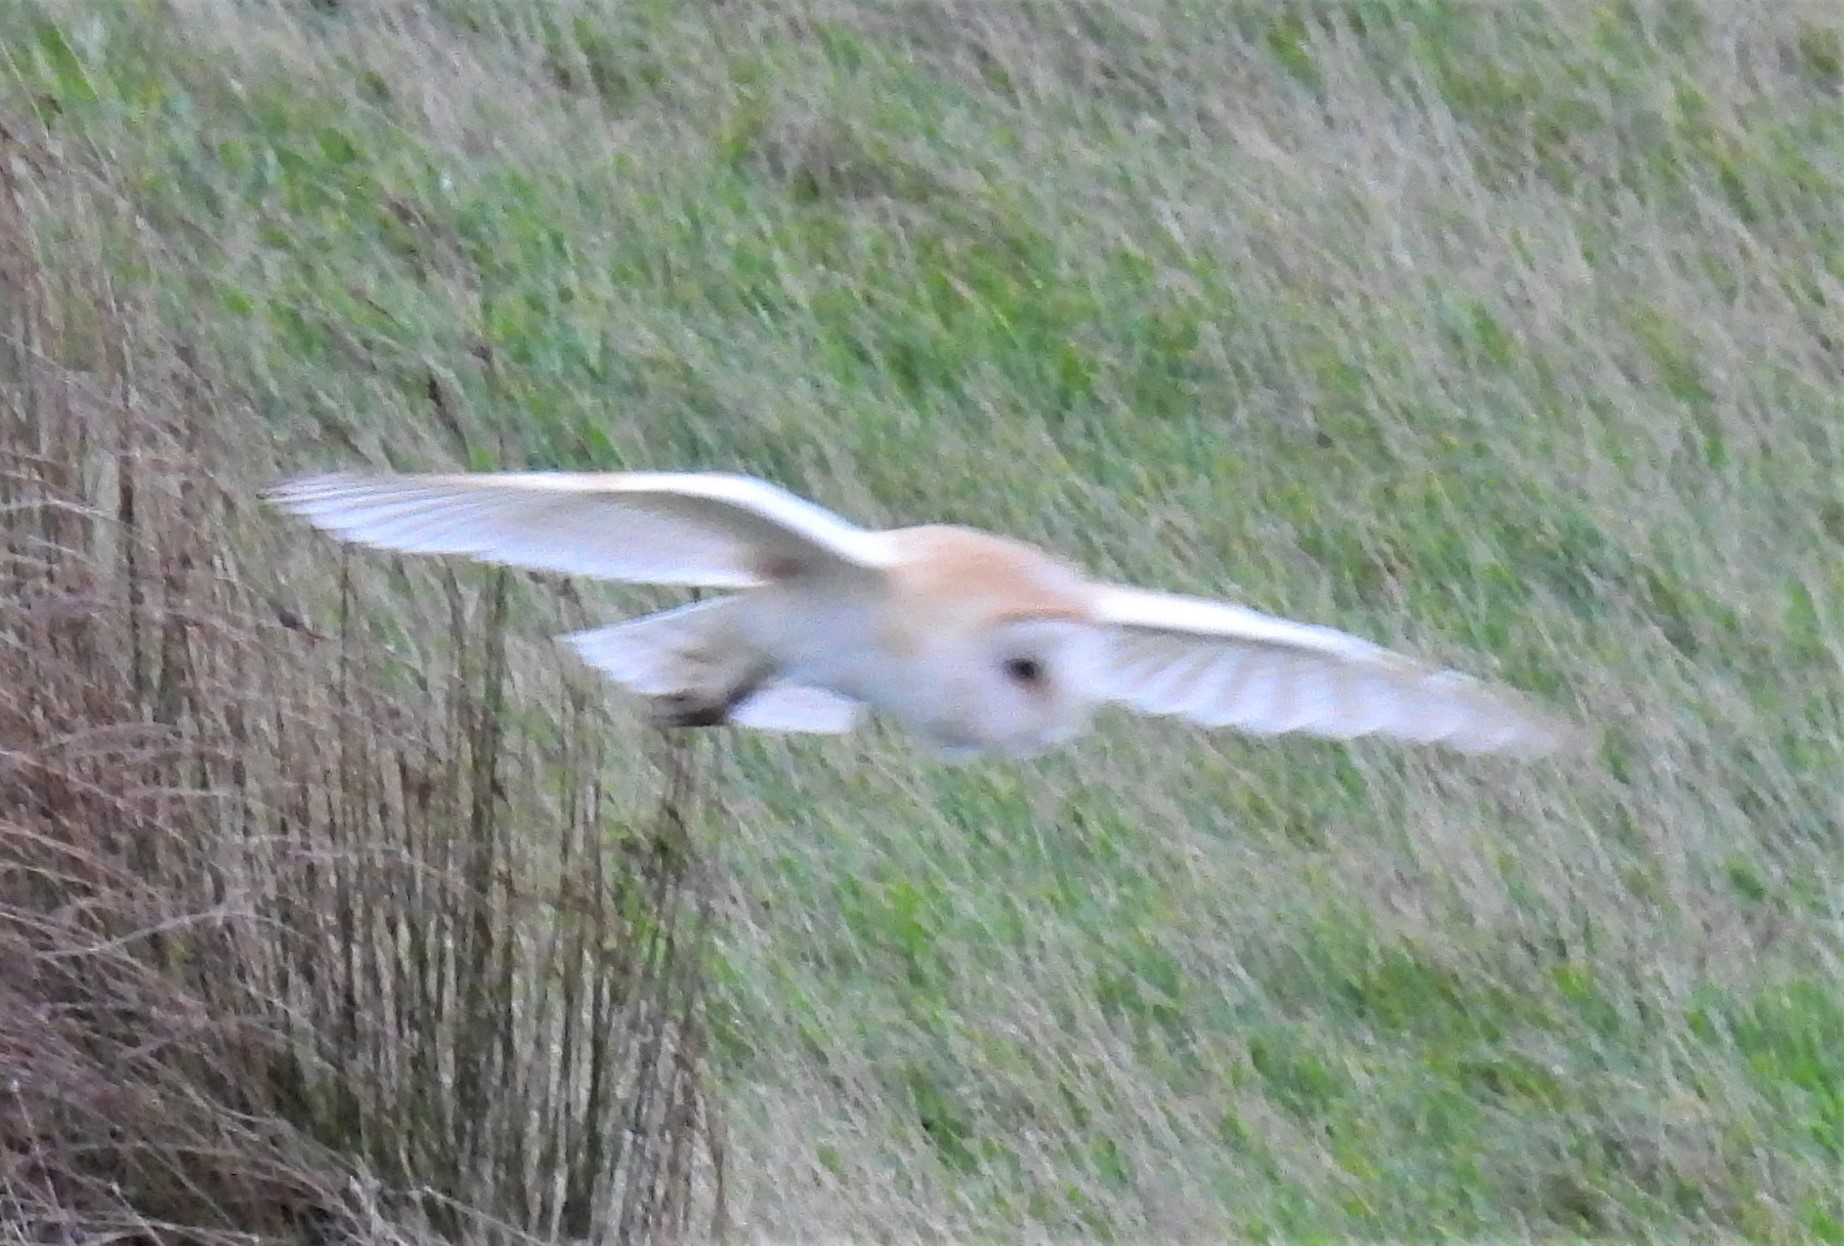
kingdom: Animalia
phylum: Chordata
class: Aves
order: Strigiformes
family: Tytonidae
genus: Tyto
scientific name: Tyto alba
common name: Barn owl
